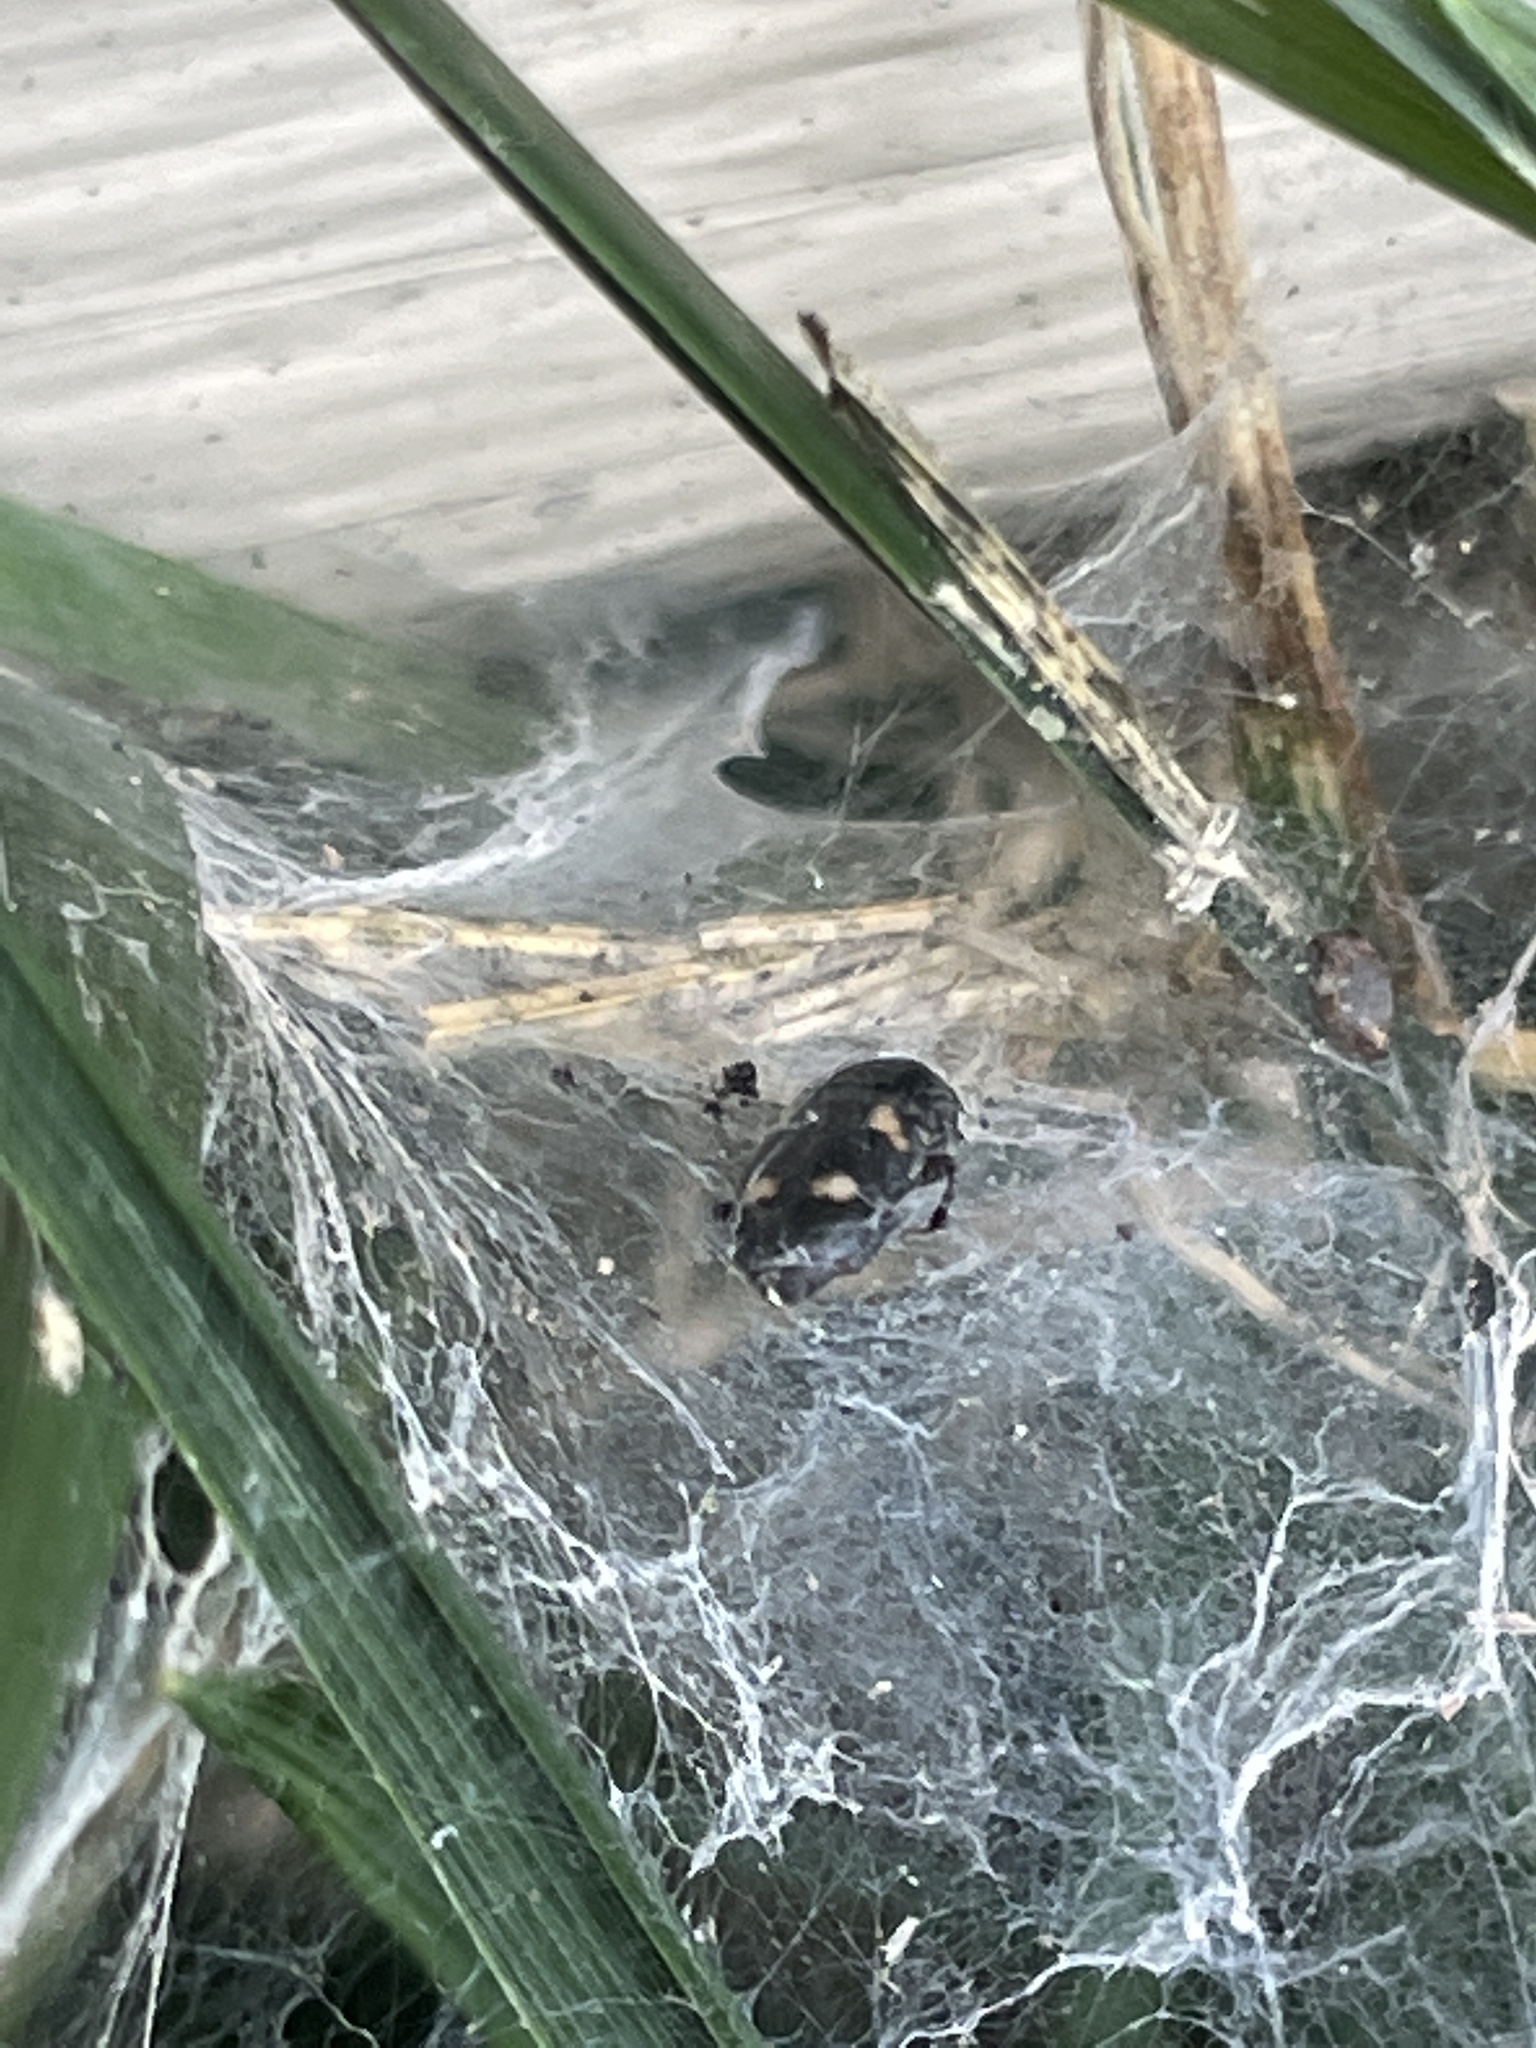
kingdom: Animalia
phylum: Arthropoda
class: Insecta
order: Coleoptera
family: Nitidulidae
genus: Glischrochilus
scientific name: Glischrochilus quadrisignatus
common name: Picnic beetle
